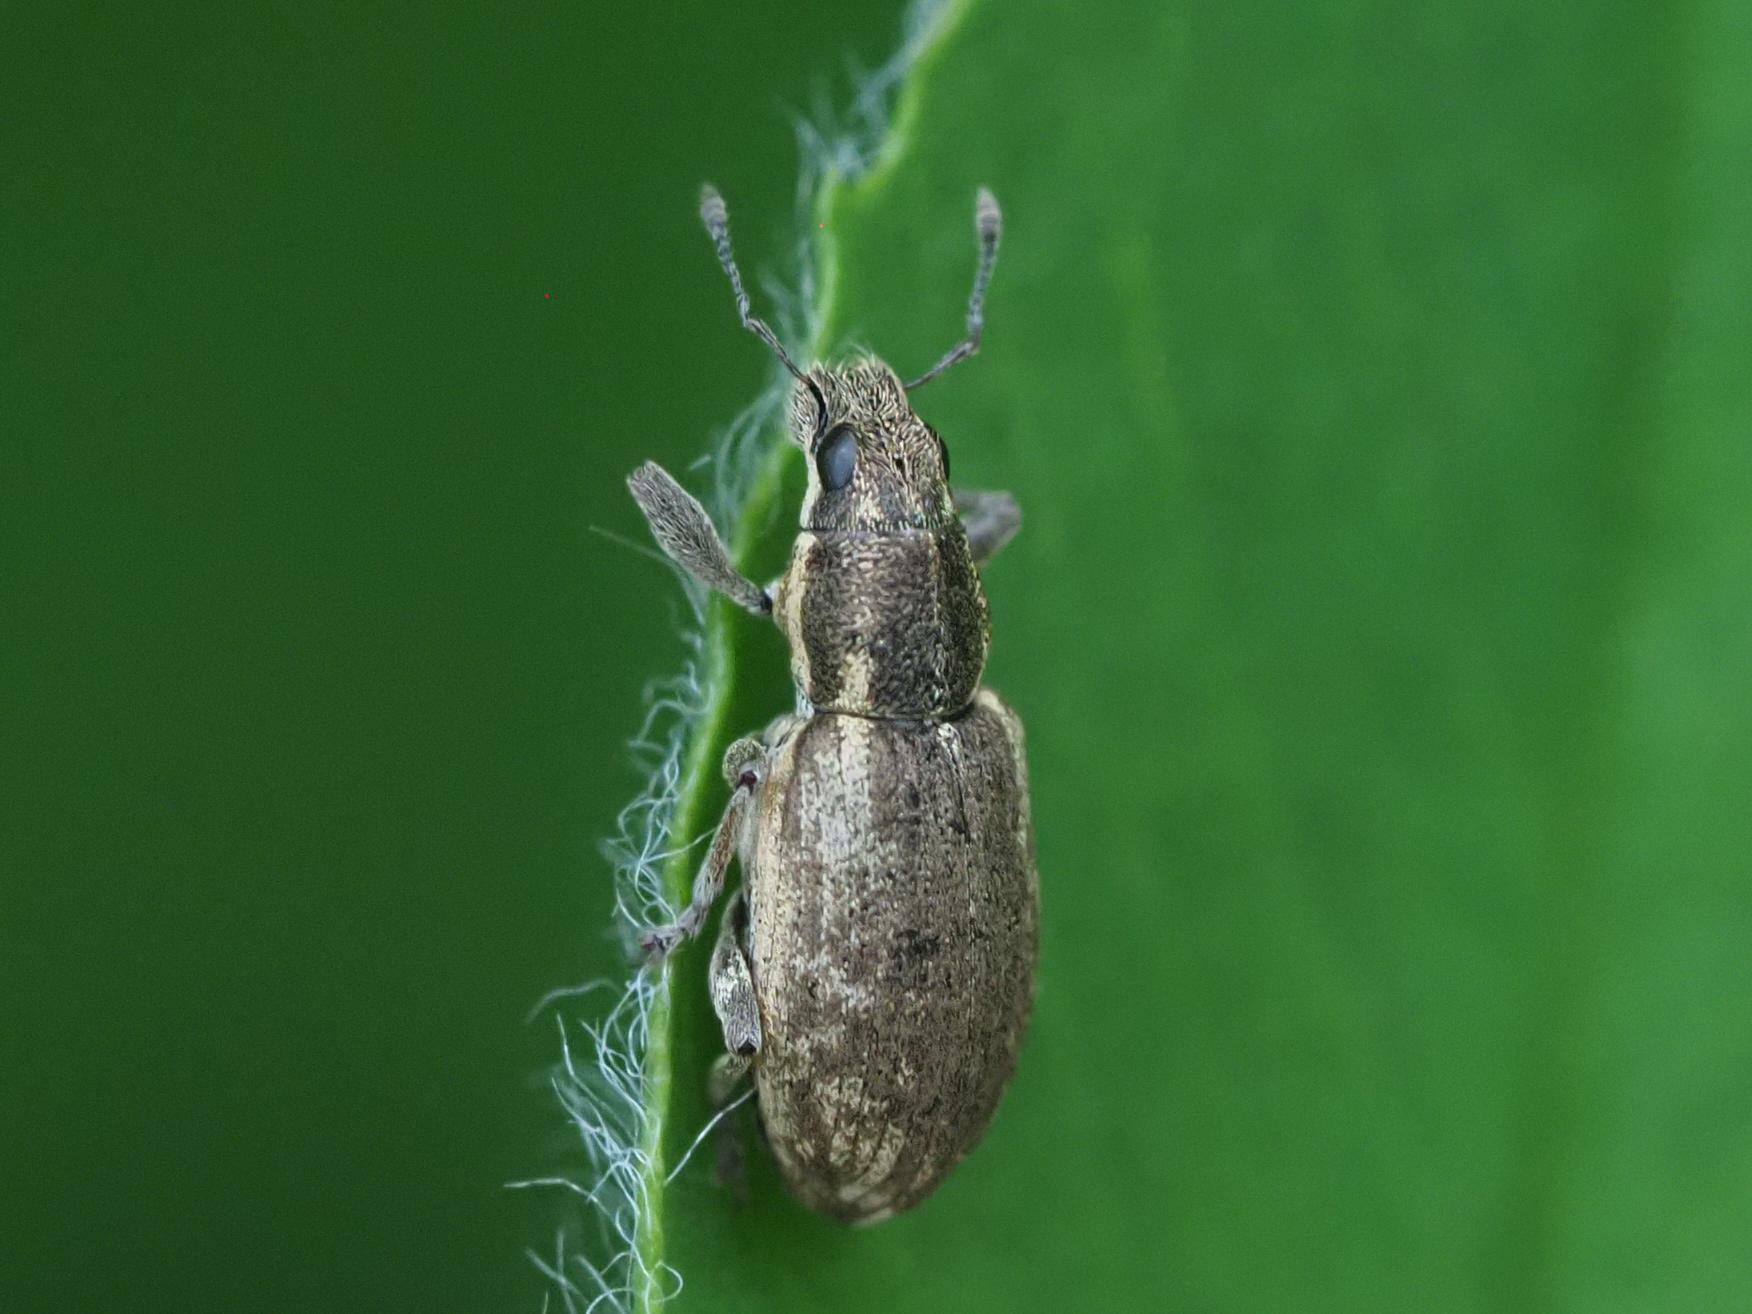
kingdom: Animalia
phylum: Arthropoda
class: Insecta
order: Coleoptera
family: Curculionidae
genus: Sitona
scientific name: Sitona humeralis
